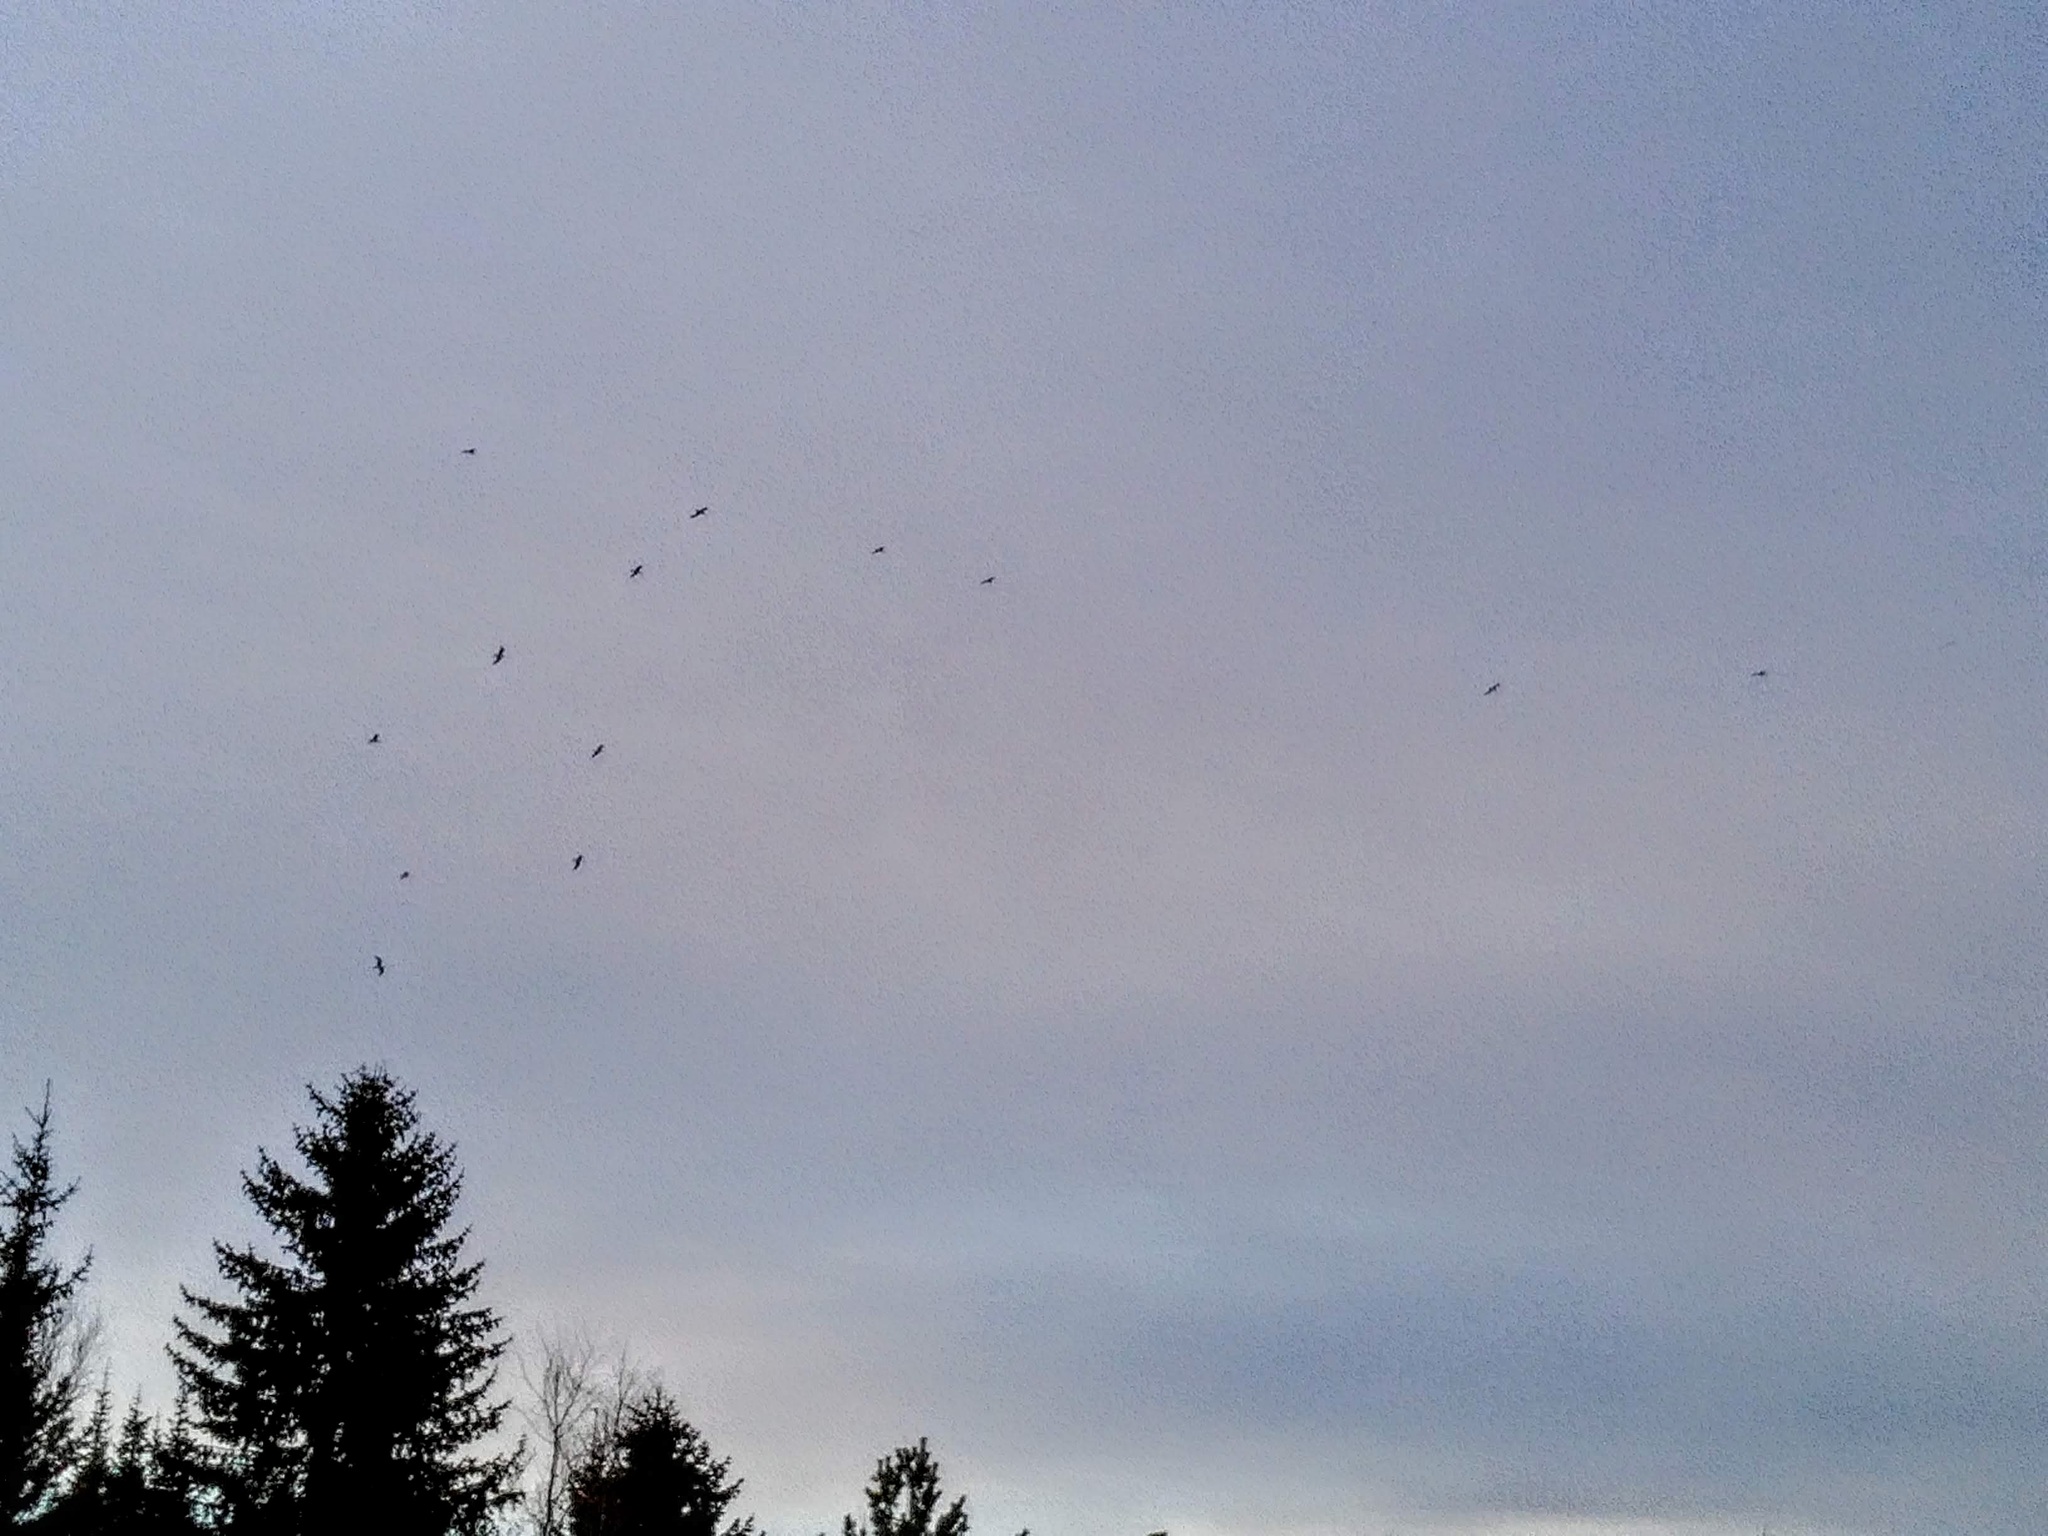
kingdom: Animalia
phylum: Chordata
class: Aves
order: Charadriiformes
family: Laridae
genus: Chroicocephalus
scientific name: Chroicocephalus ridibundus
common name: Black-headed gull
